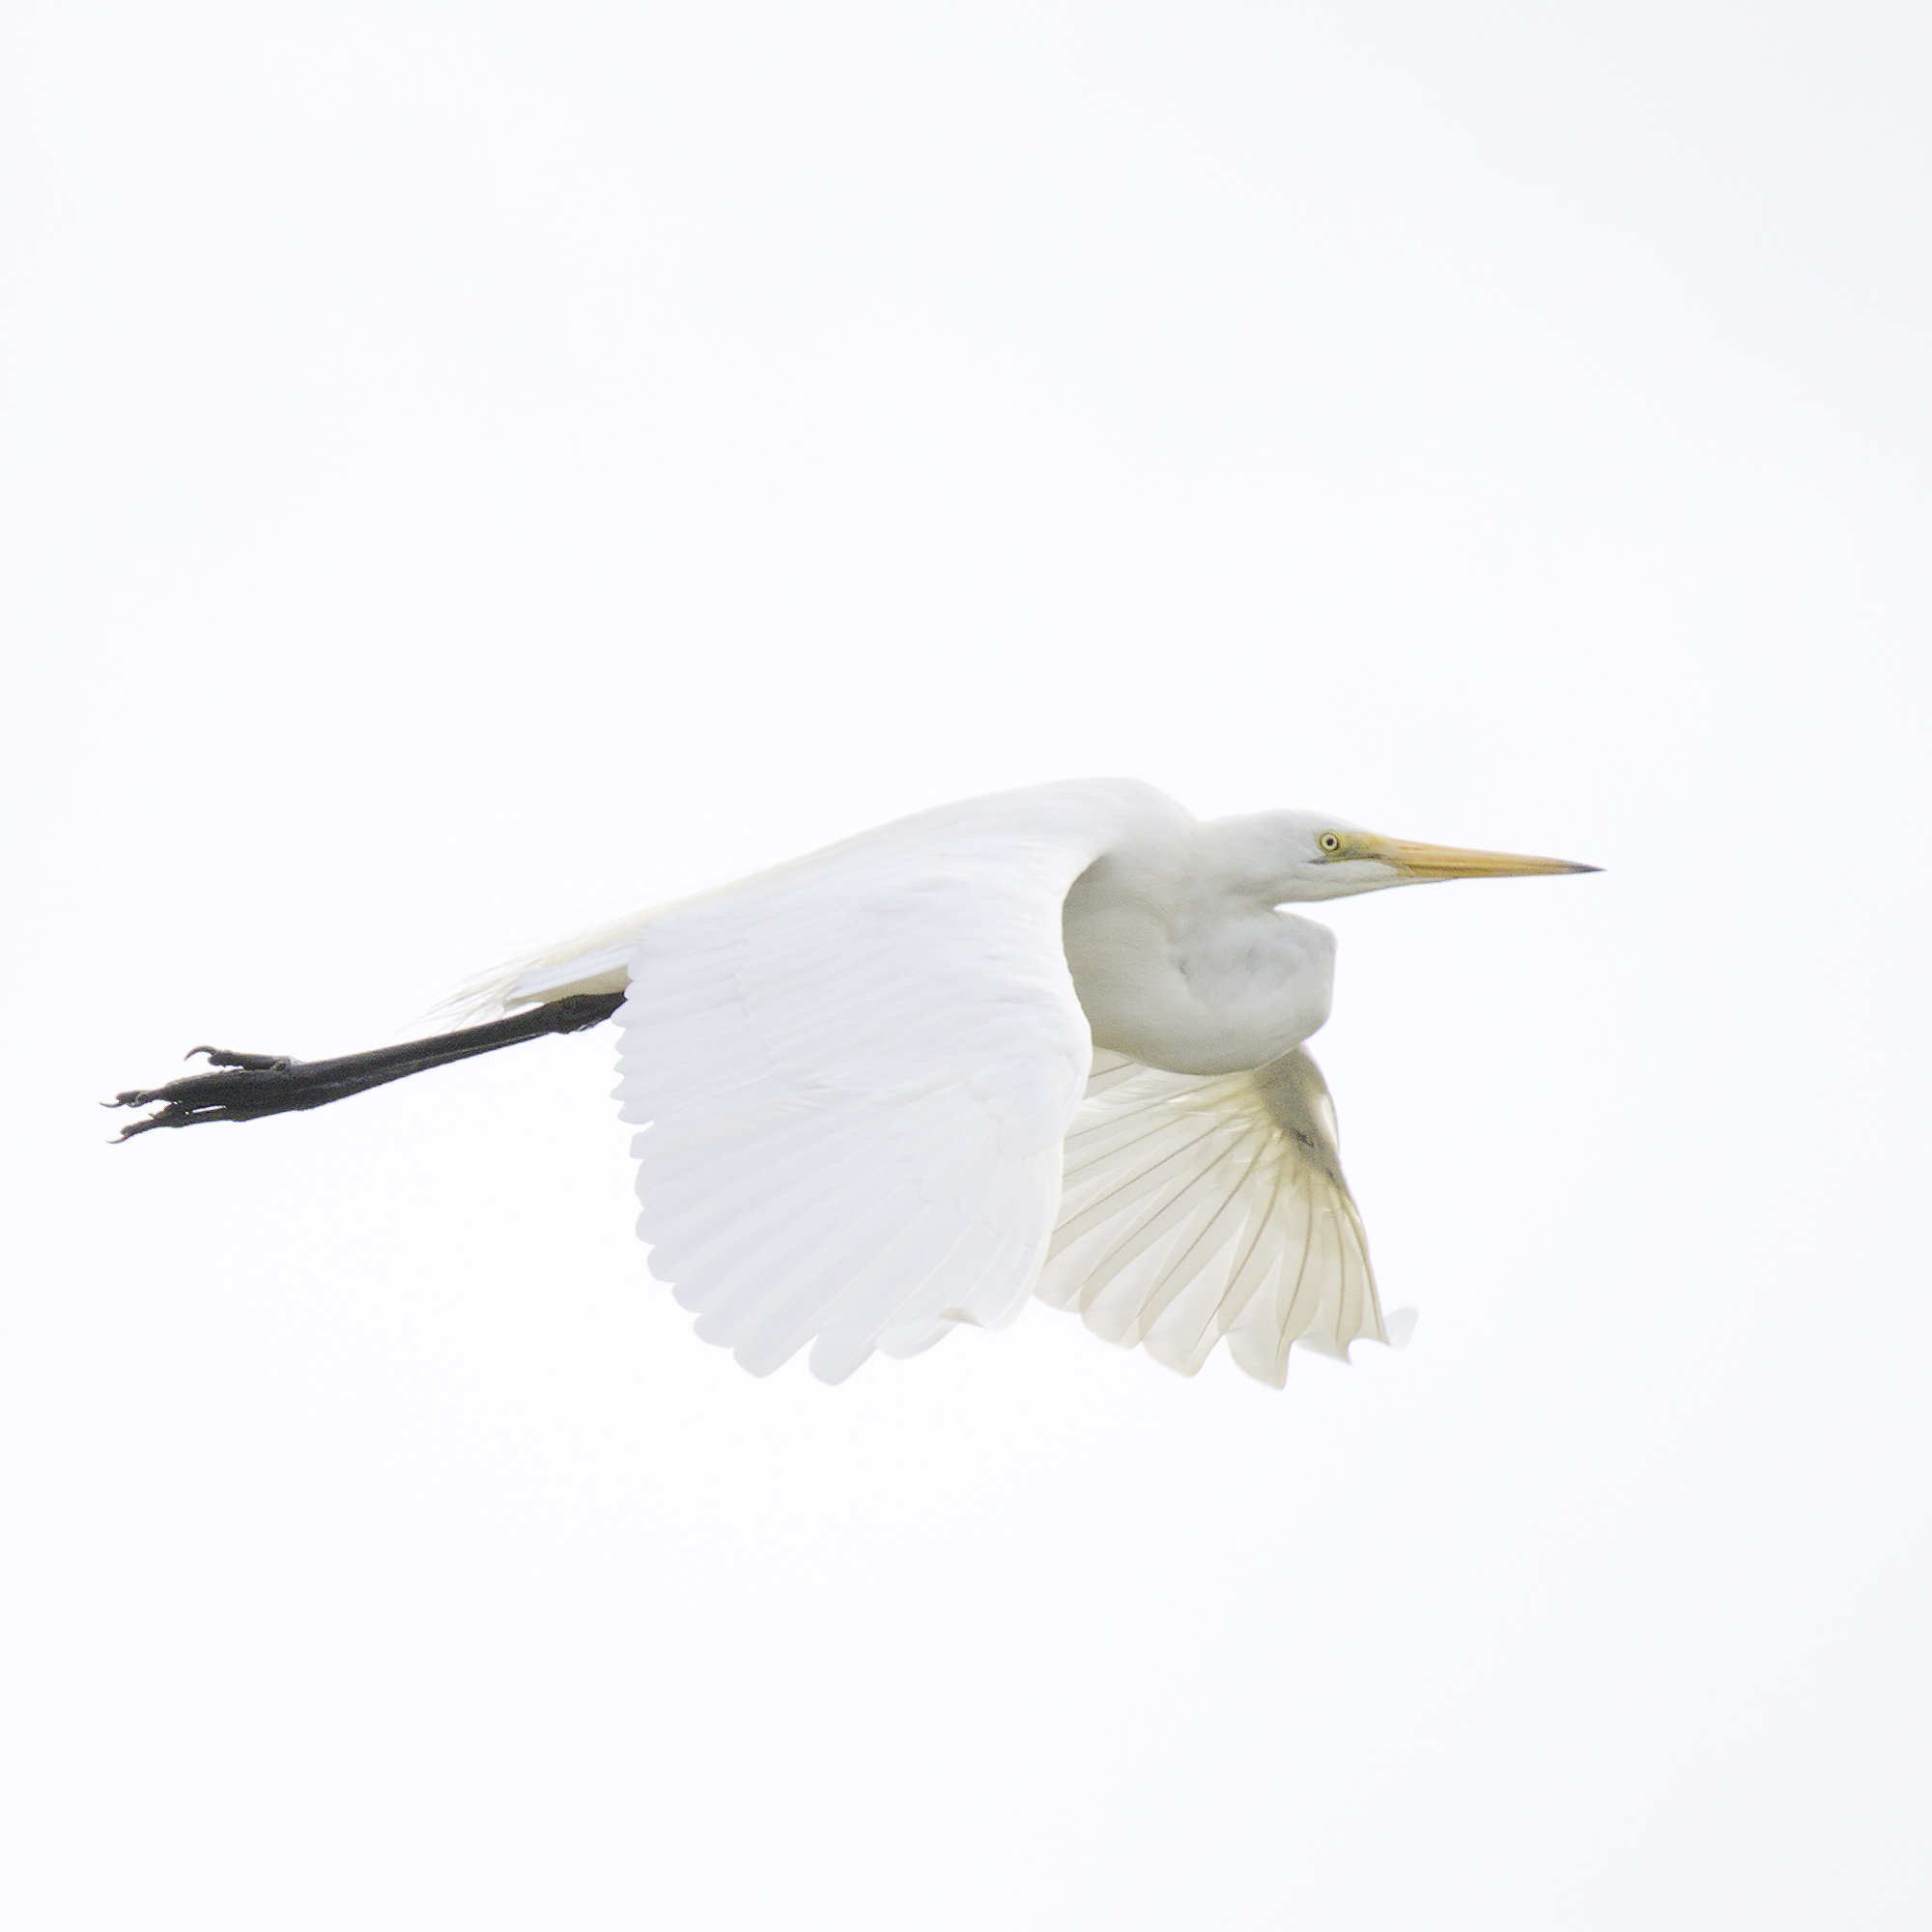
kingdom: Animalia
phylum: Chordata
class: Aves
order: Pelecaniformes
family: Ardeidae
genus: Ardea
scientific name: Ardea alba
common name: Great egret
